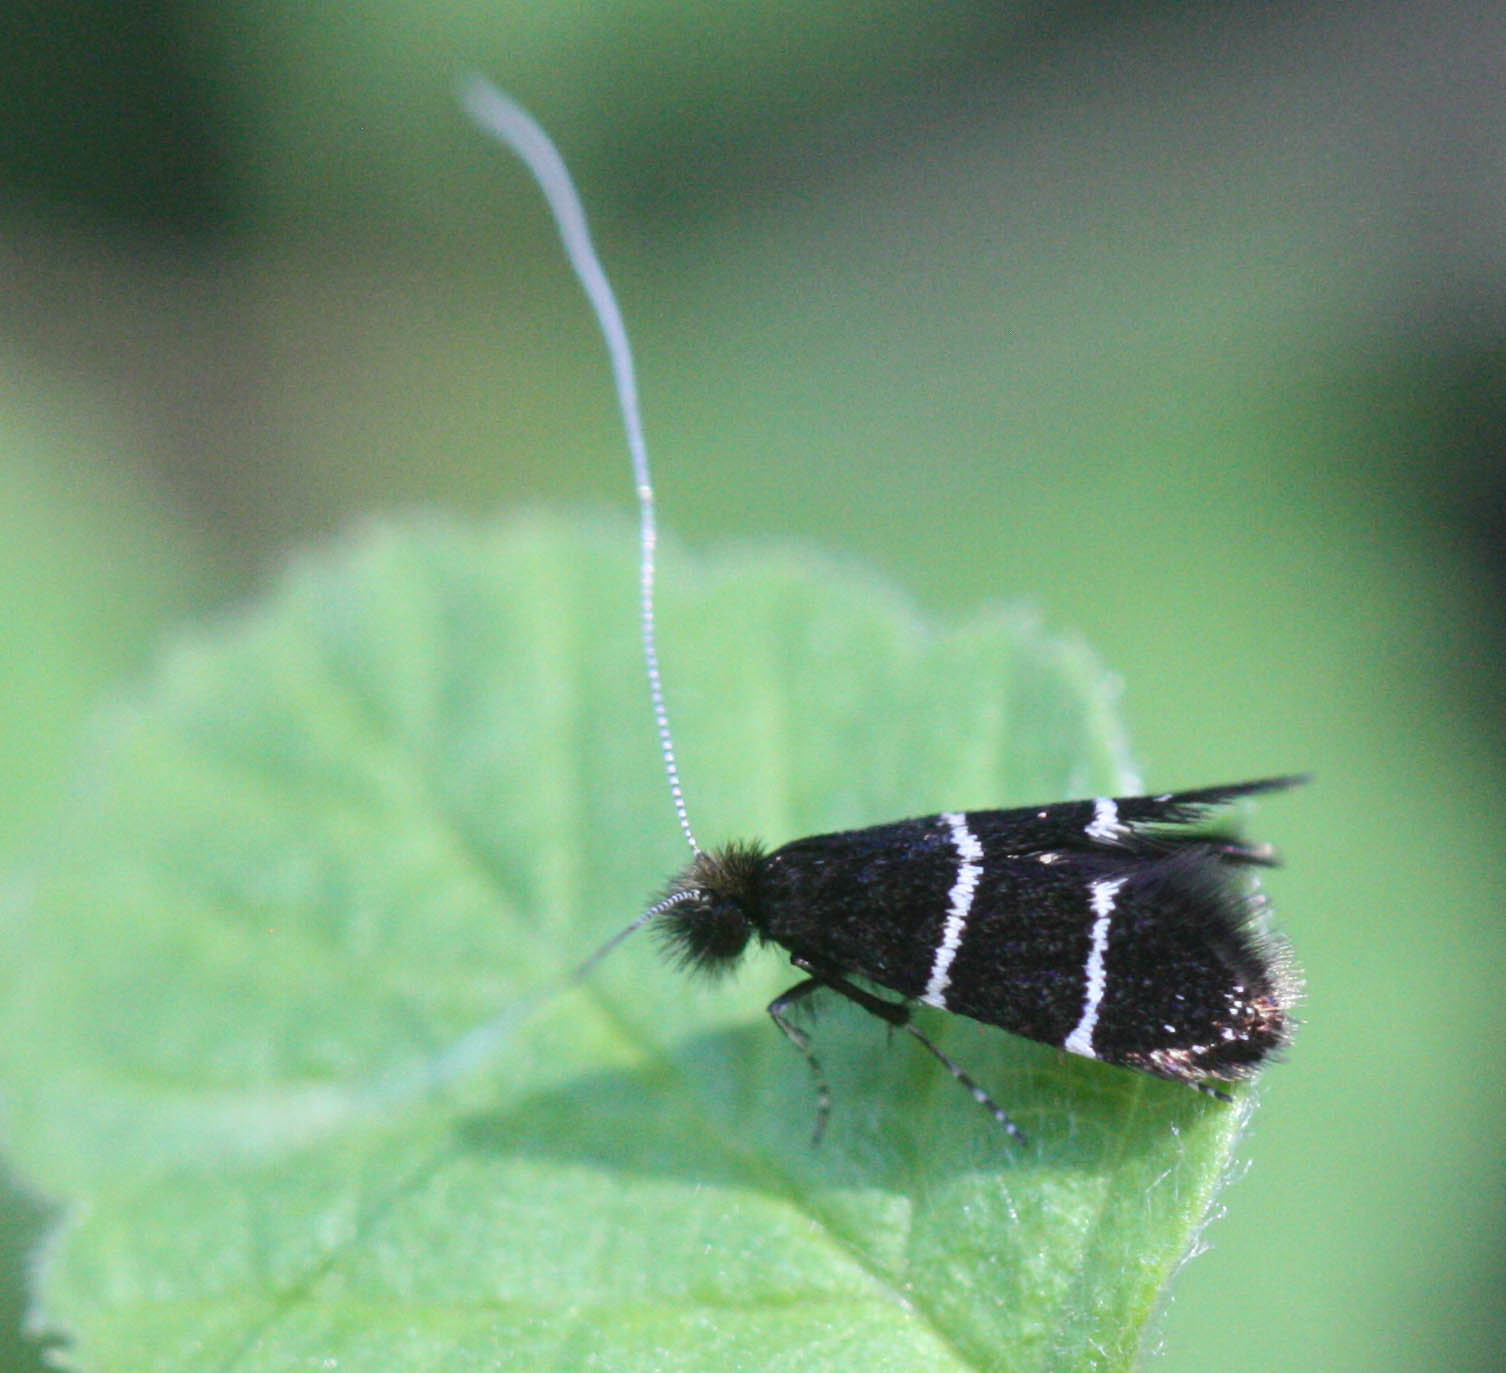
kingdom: Animalia
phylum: Arthropoda
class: Insecta
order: Lepidoptera
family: Adelidae
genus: Adela
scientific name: Adela septentrionella
